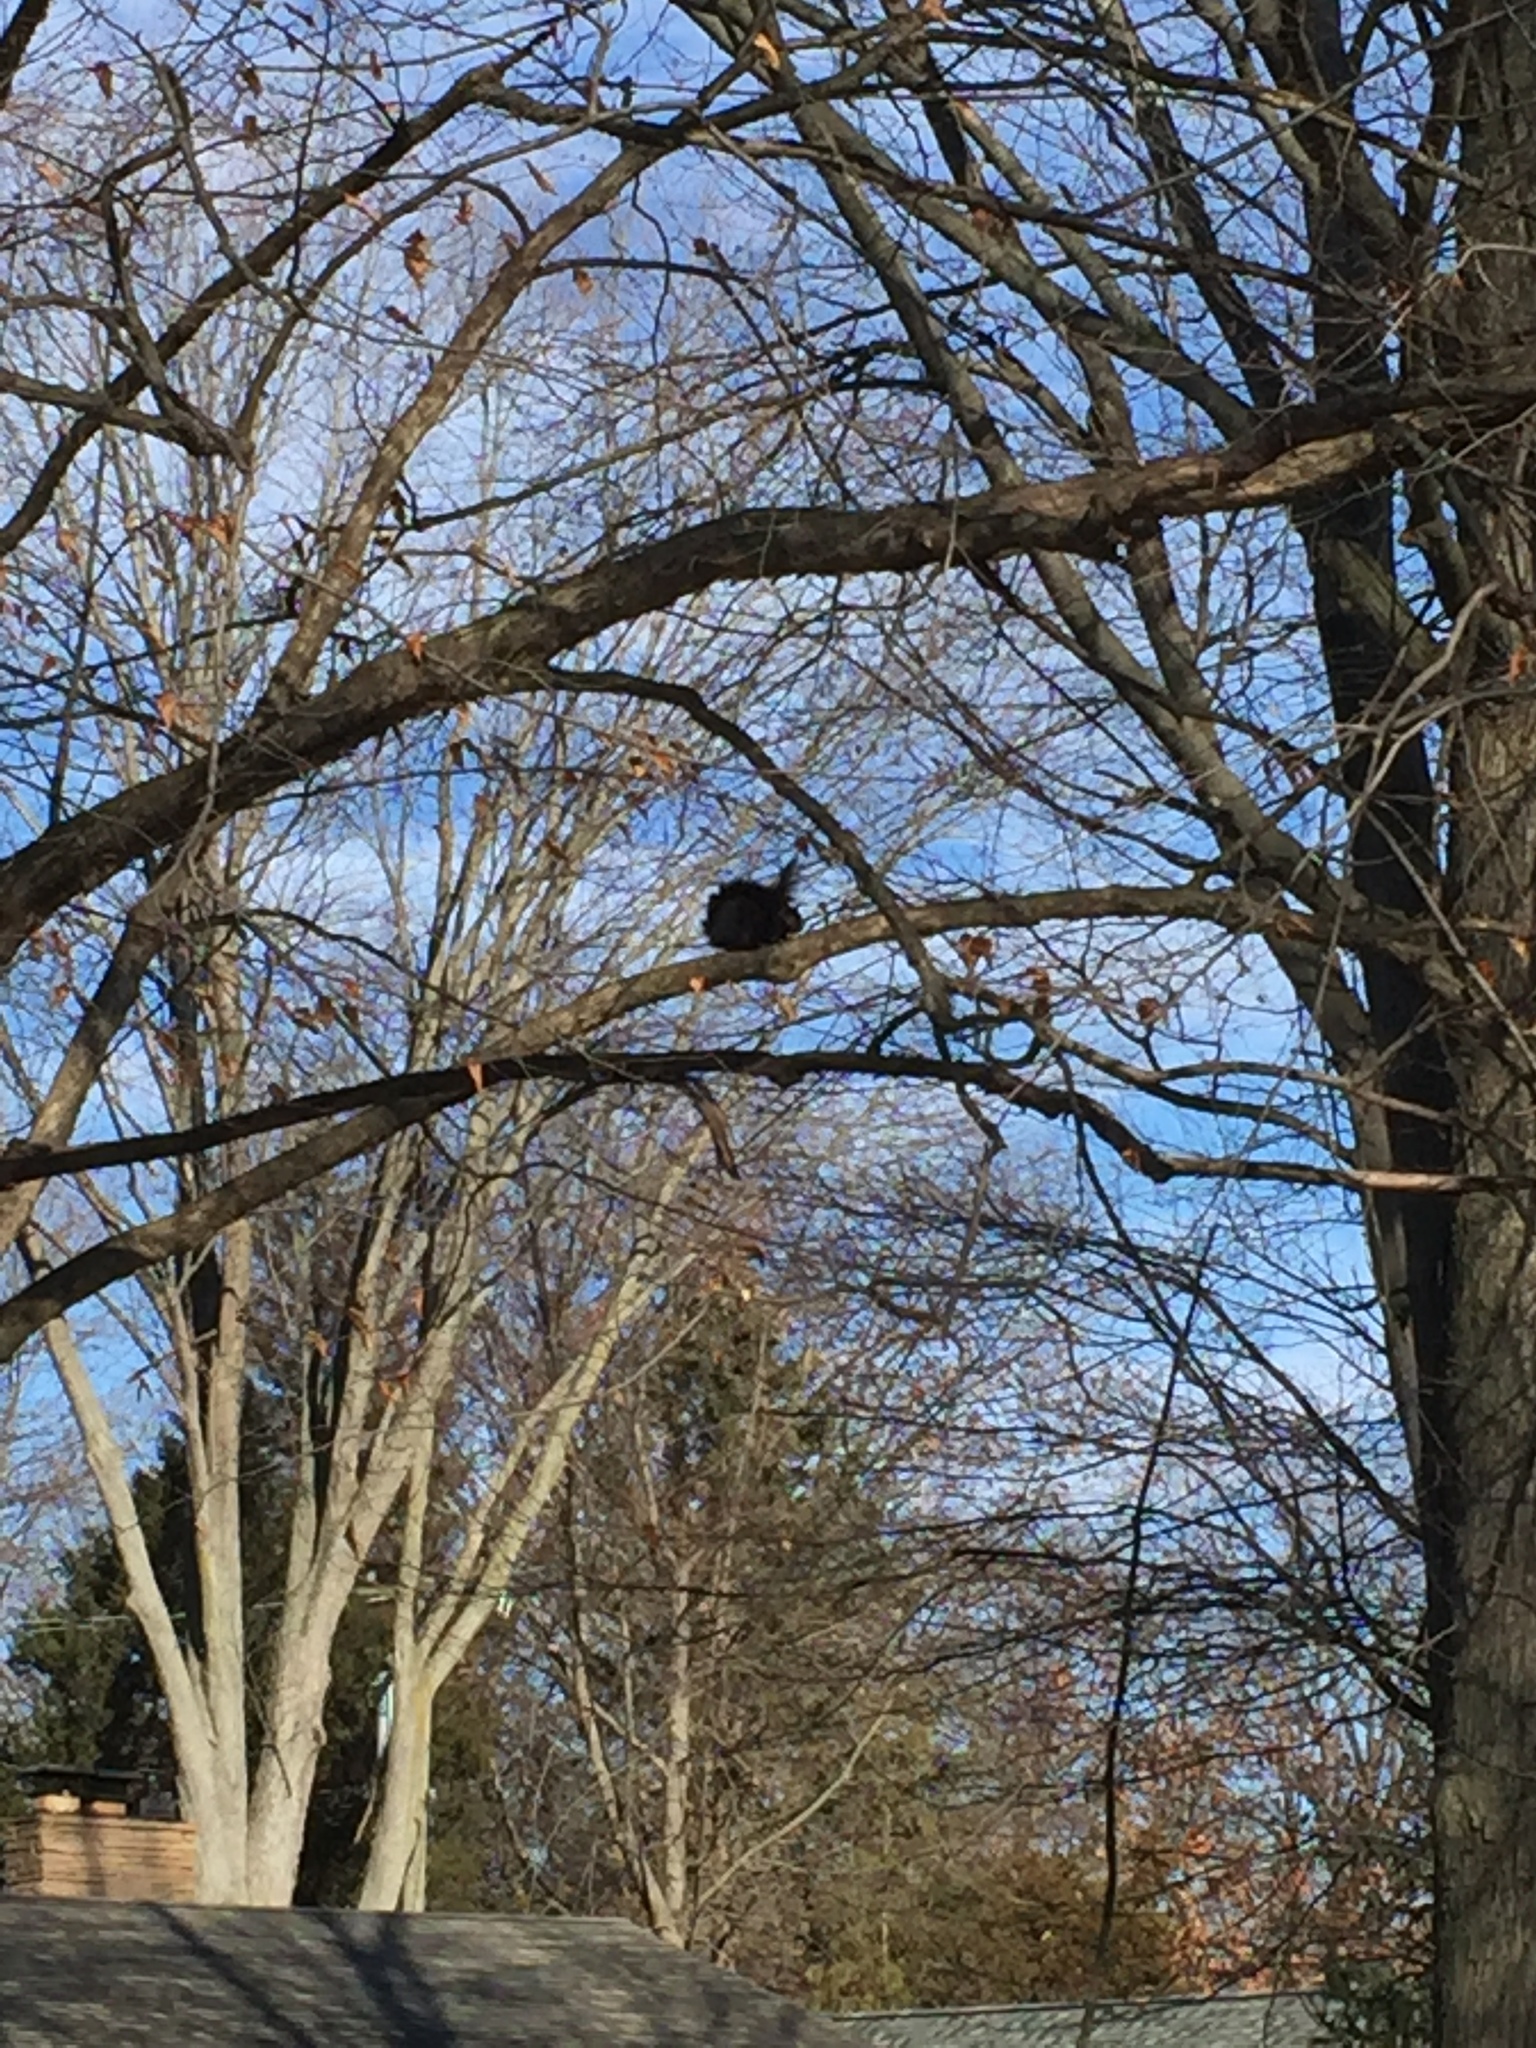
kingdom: Animalia
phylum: Chordata
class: Mammalia
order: Rodentia
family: Sciuridae
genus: Sciurus
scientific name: Sciurus carolinensis
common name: Eastern gray squirrel
